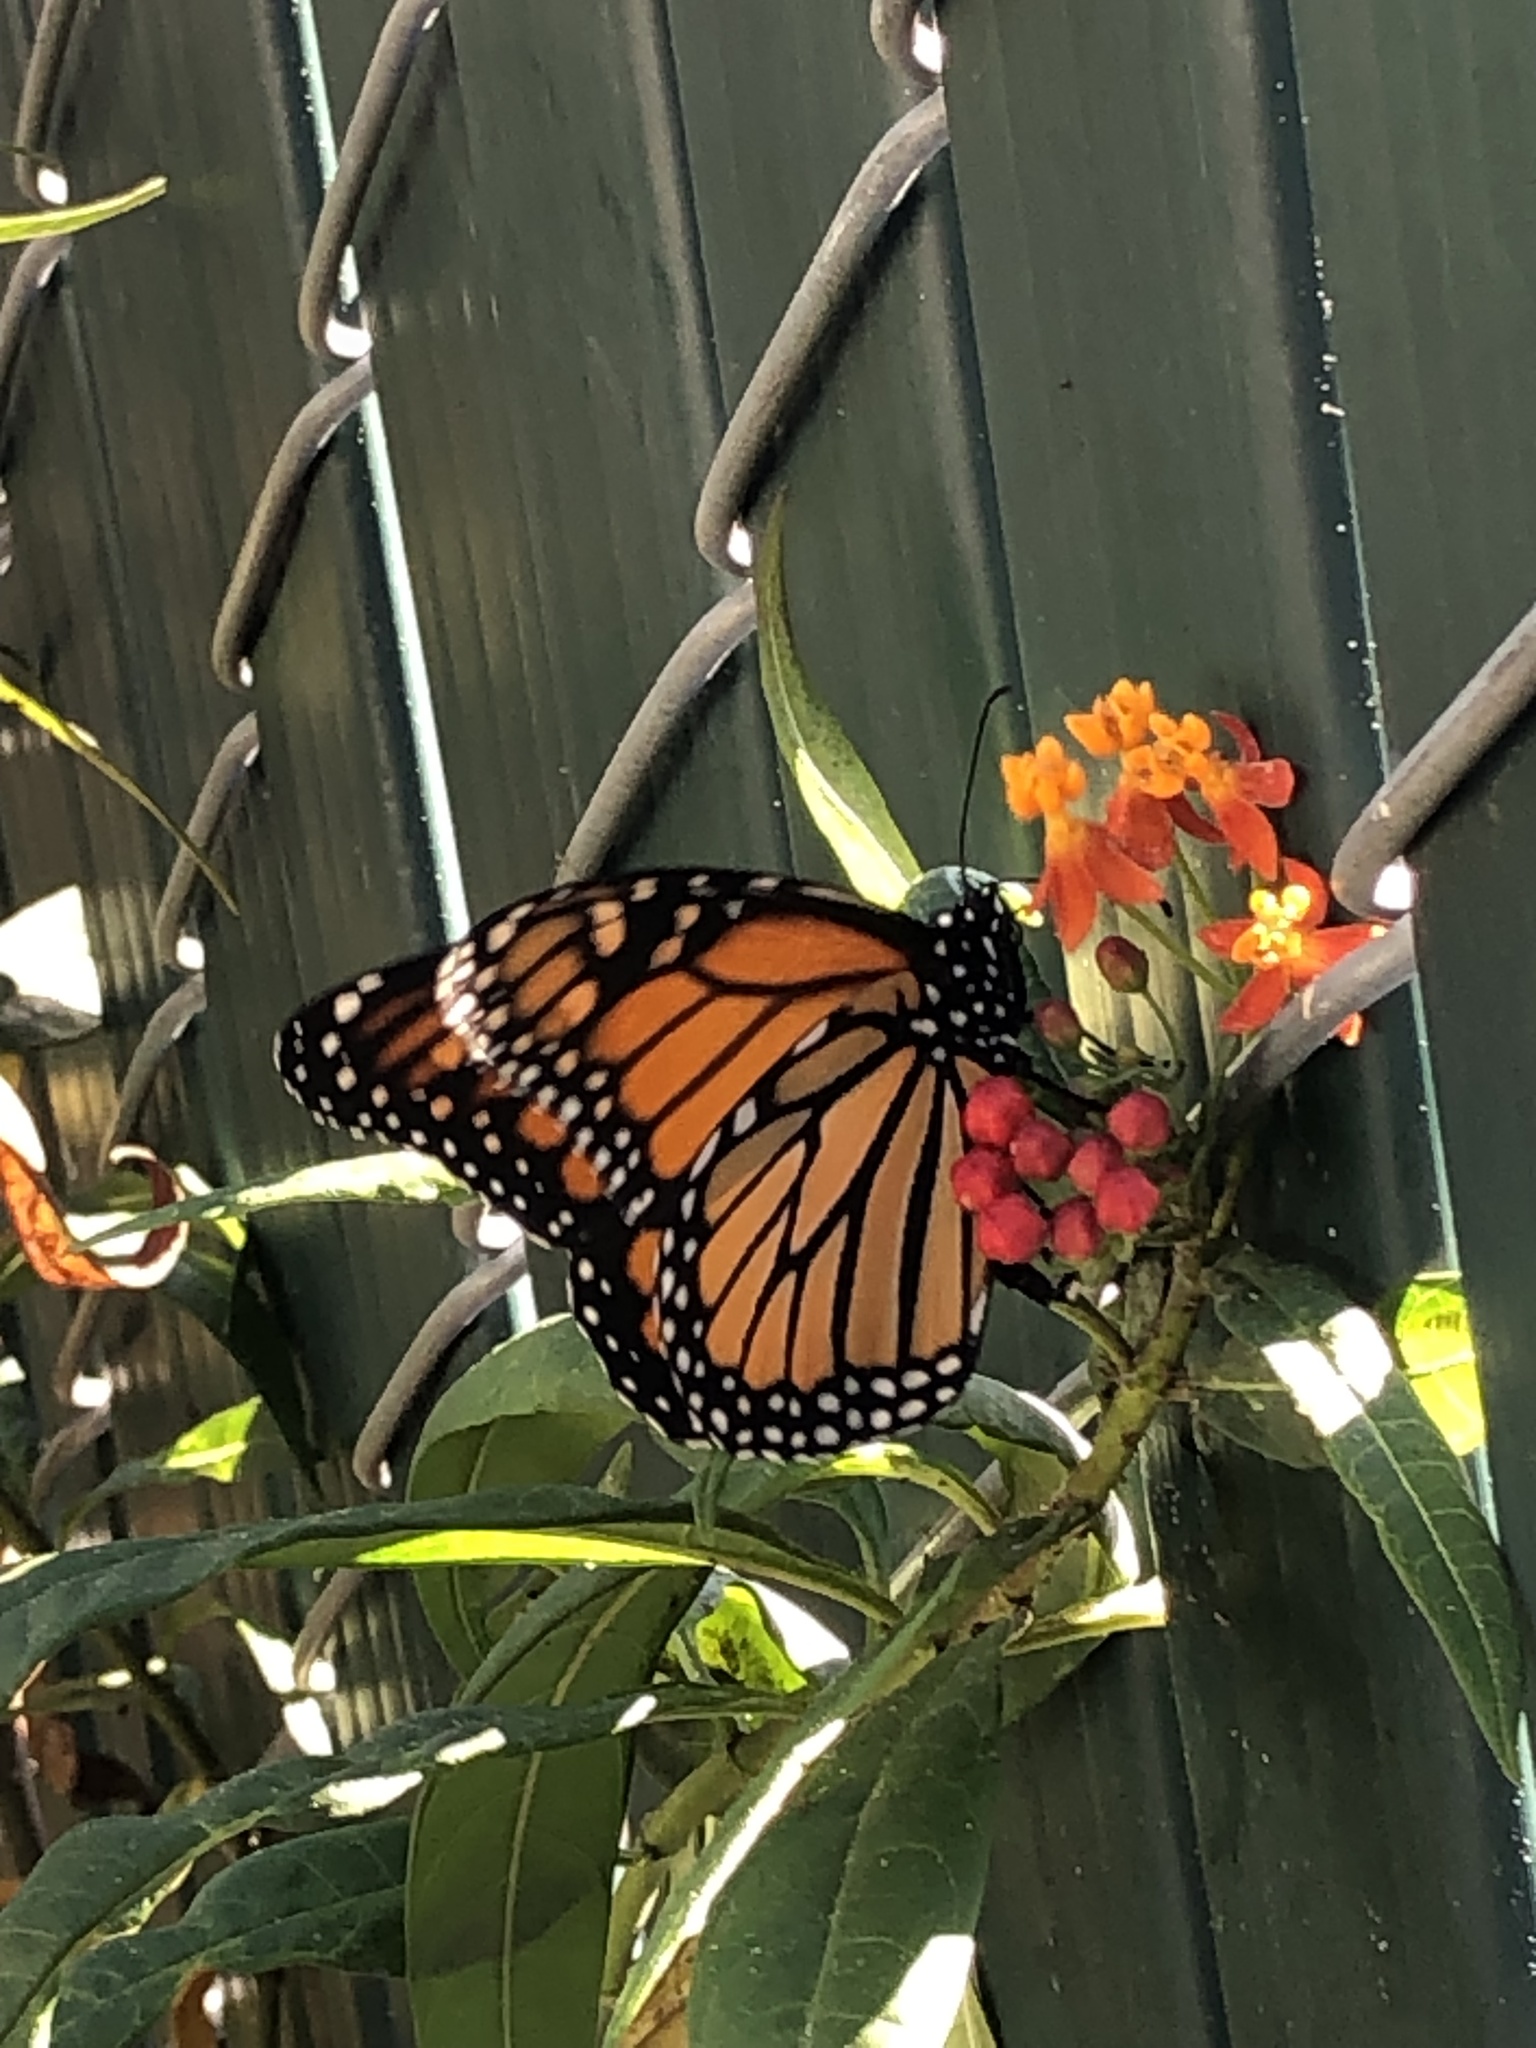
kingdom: Animalia
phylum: Arthropoda
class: Insecta
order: Lepidoptera
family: Nymphalidae
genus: Danaus
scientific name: Danaus plexippus
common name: Monarch
